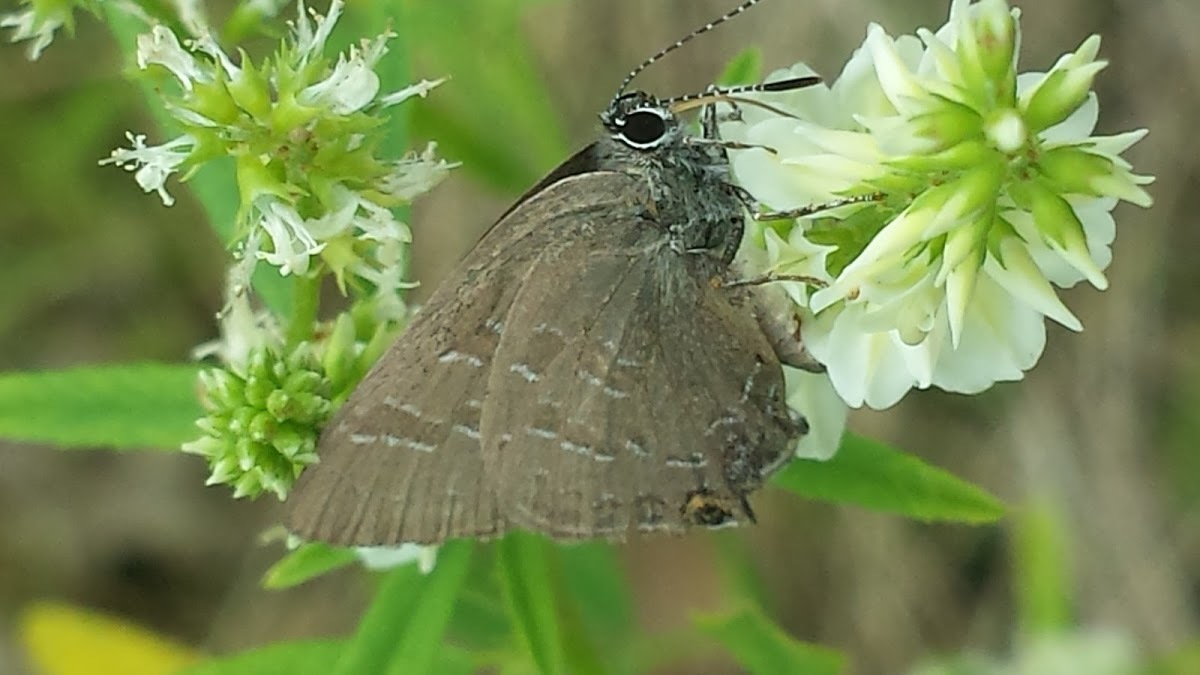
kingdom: Animalia
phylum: Arthropoda
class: Insecta
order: Lepidoptera
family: Lycaenidae
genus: Satyrium
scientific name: Satyrium
